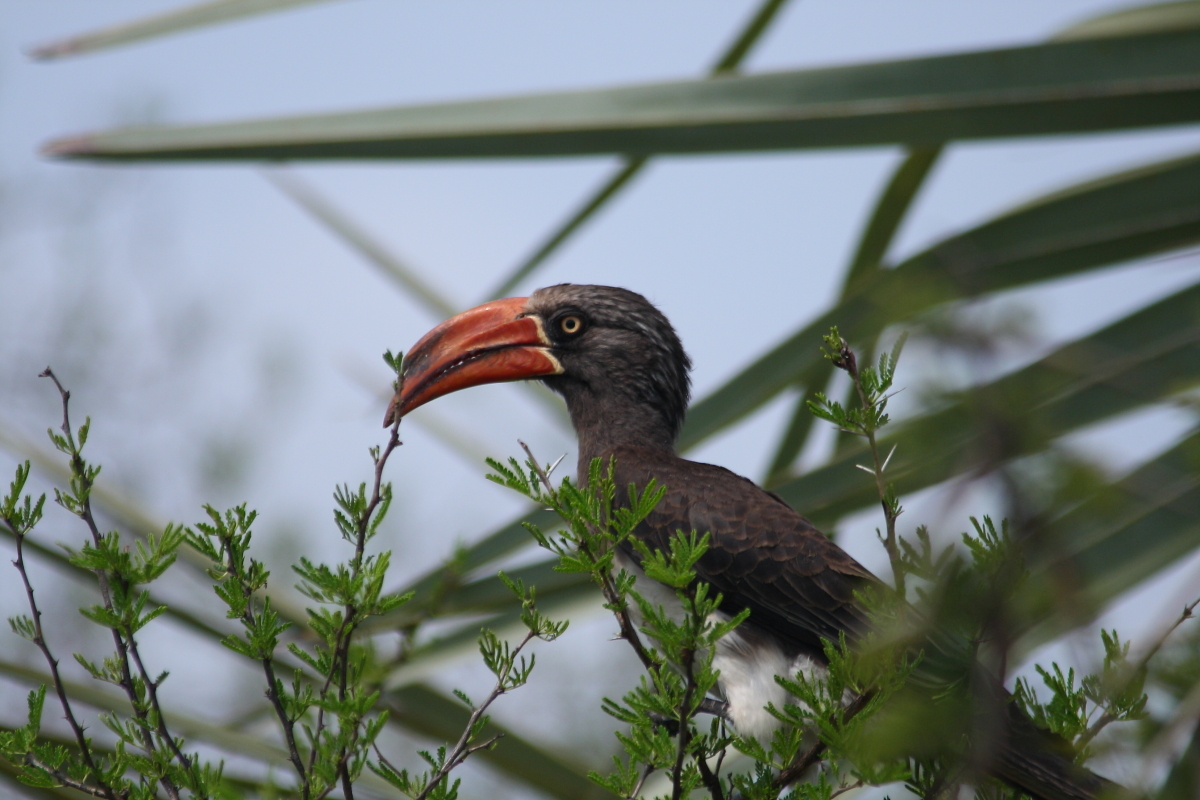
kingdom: Animalia
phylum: Chordata
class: Aves
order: Bucerotiformes
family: Bucerotidae
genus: Lophoceros
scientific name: Lophoceros alboterminatus
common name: Crowned hornbill
